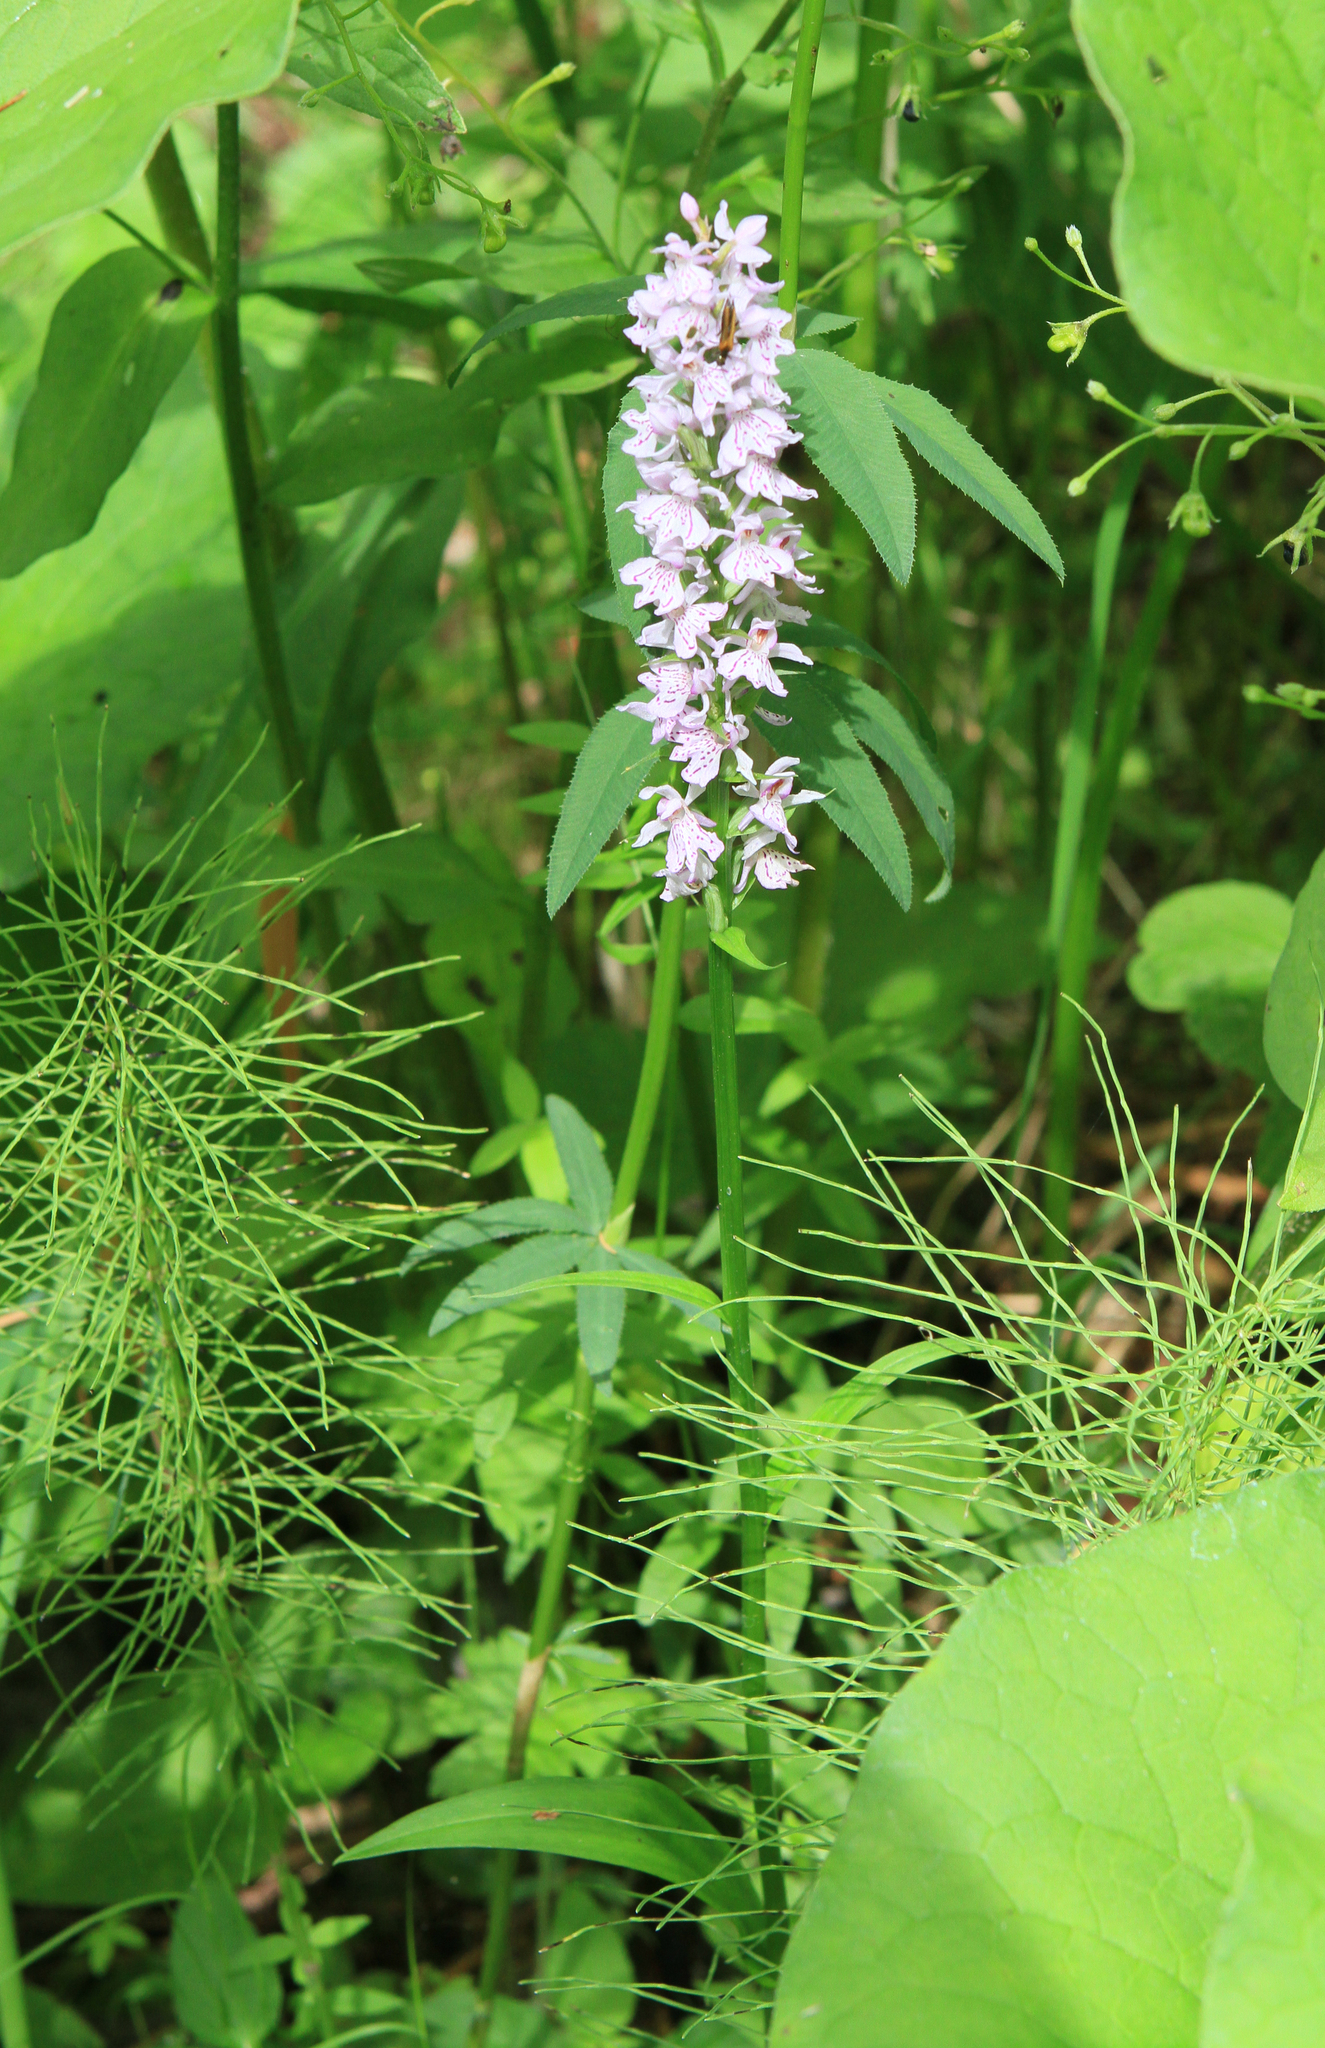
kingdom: Plantae
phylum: Tracheophyta
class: Liliopsida
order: Asparagales
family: Orchidaceae
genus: Dactylorhiza
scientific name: Dactylorhiza maculata
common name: Heath spotted-orchid
